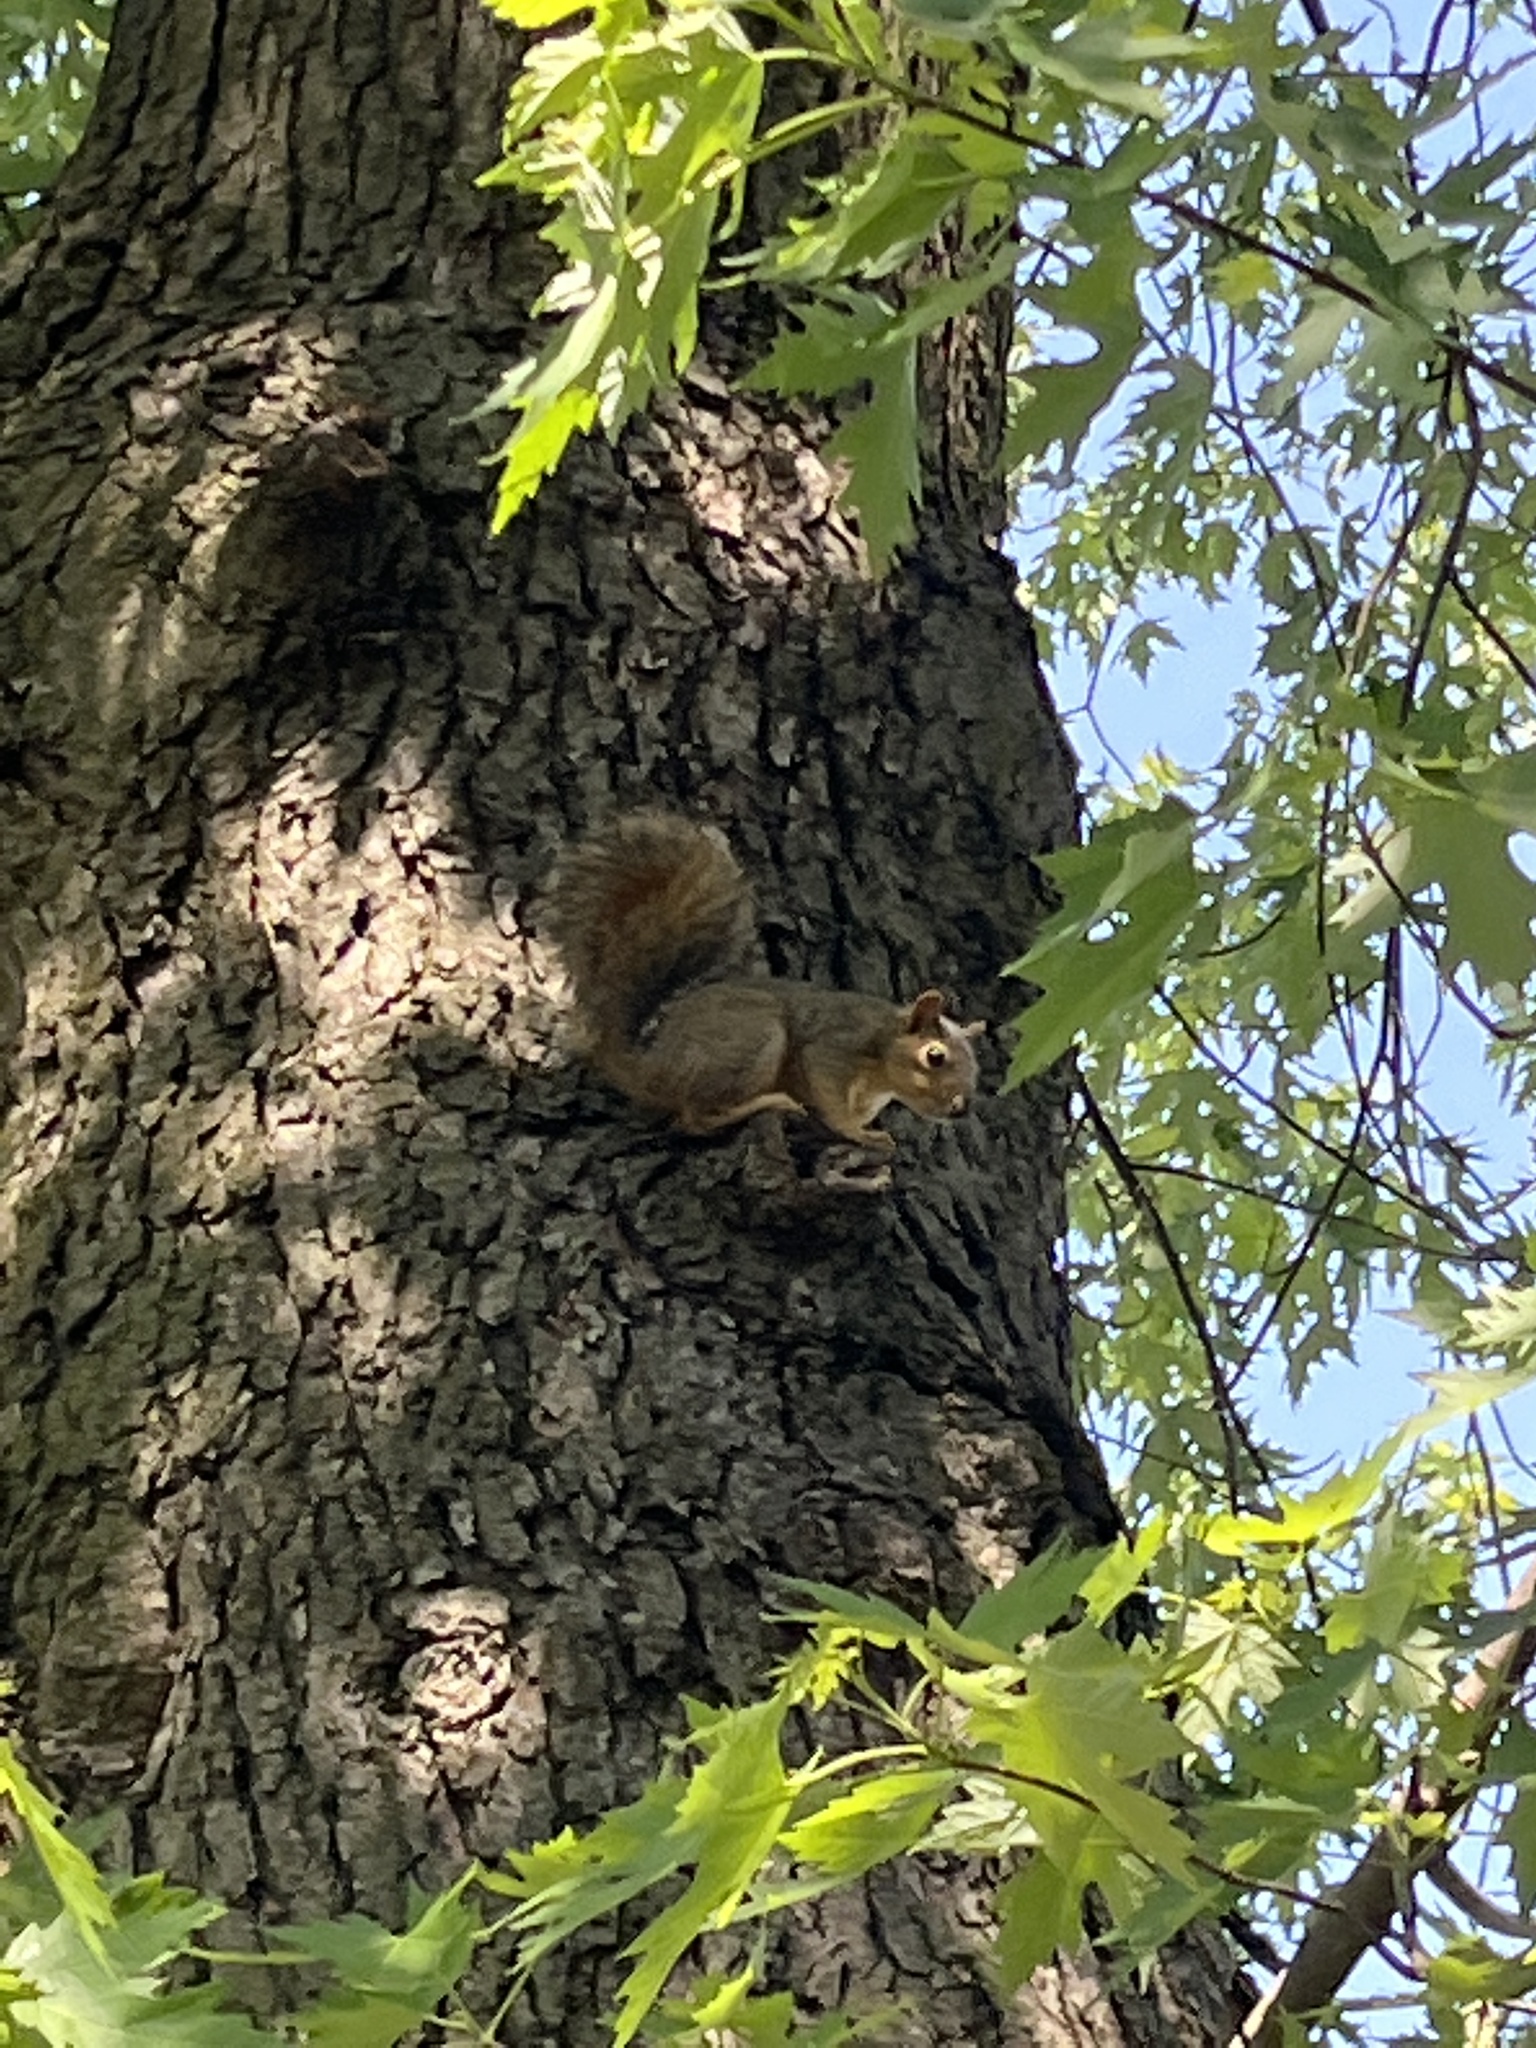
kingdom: Animalia
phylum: Chordata
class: Mammalia
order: Rodentia
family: Sciuridae
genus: Sciurus
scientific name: Sciurus carolinensis
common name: Eastern gray squirrel
